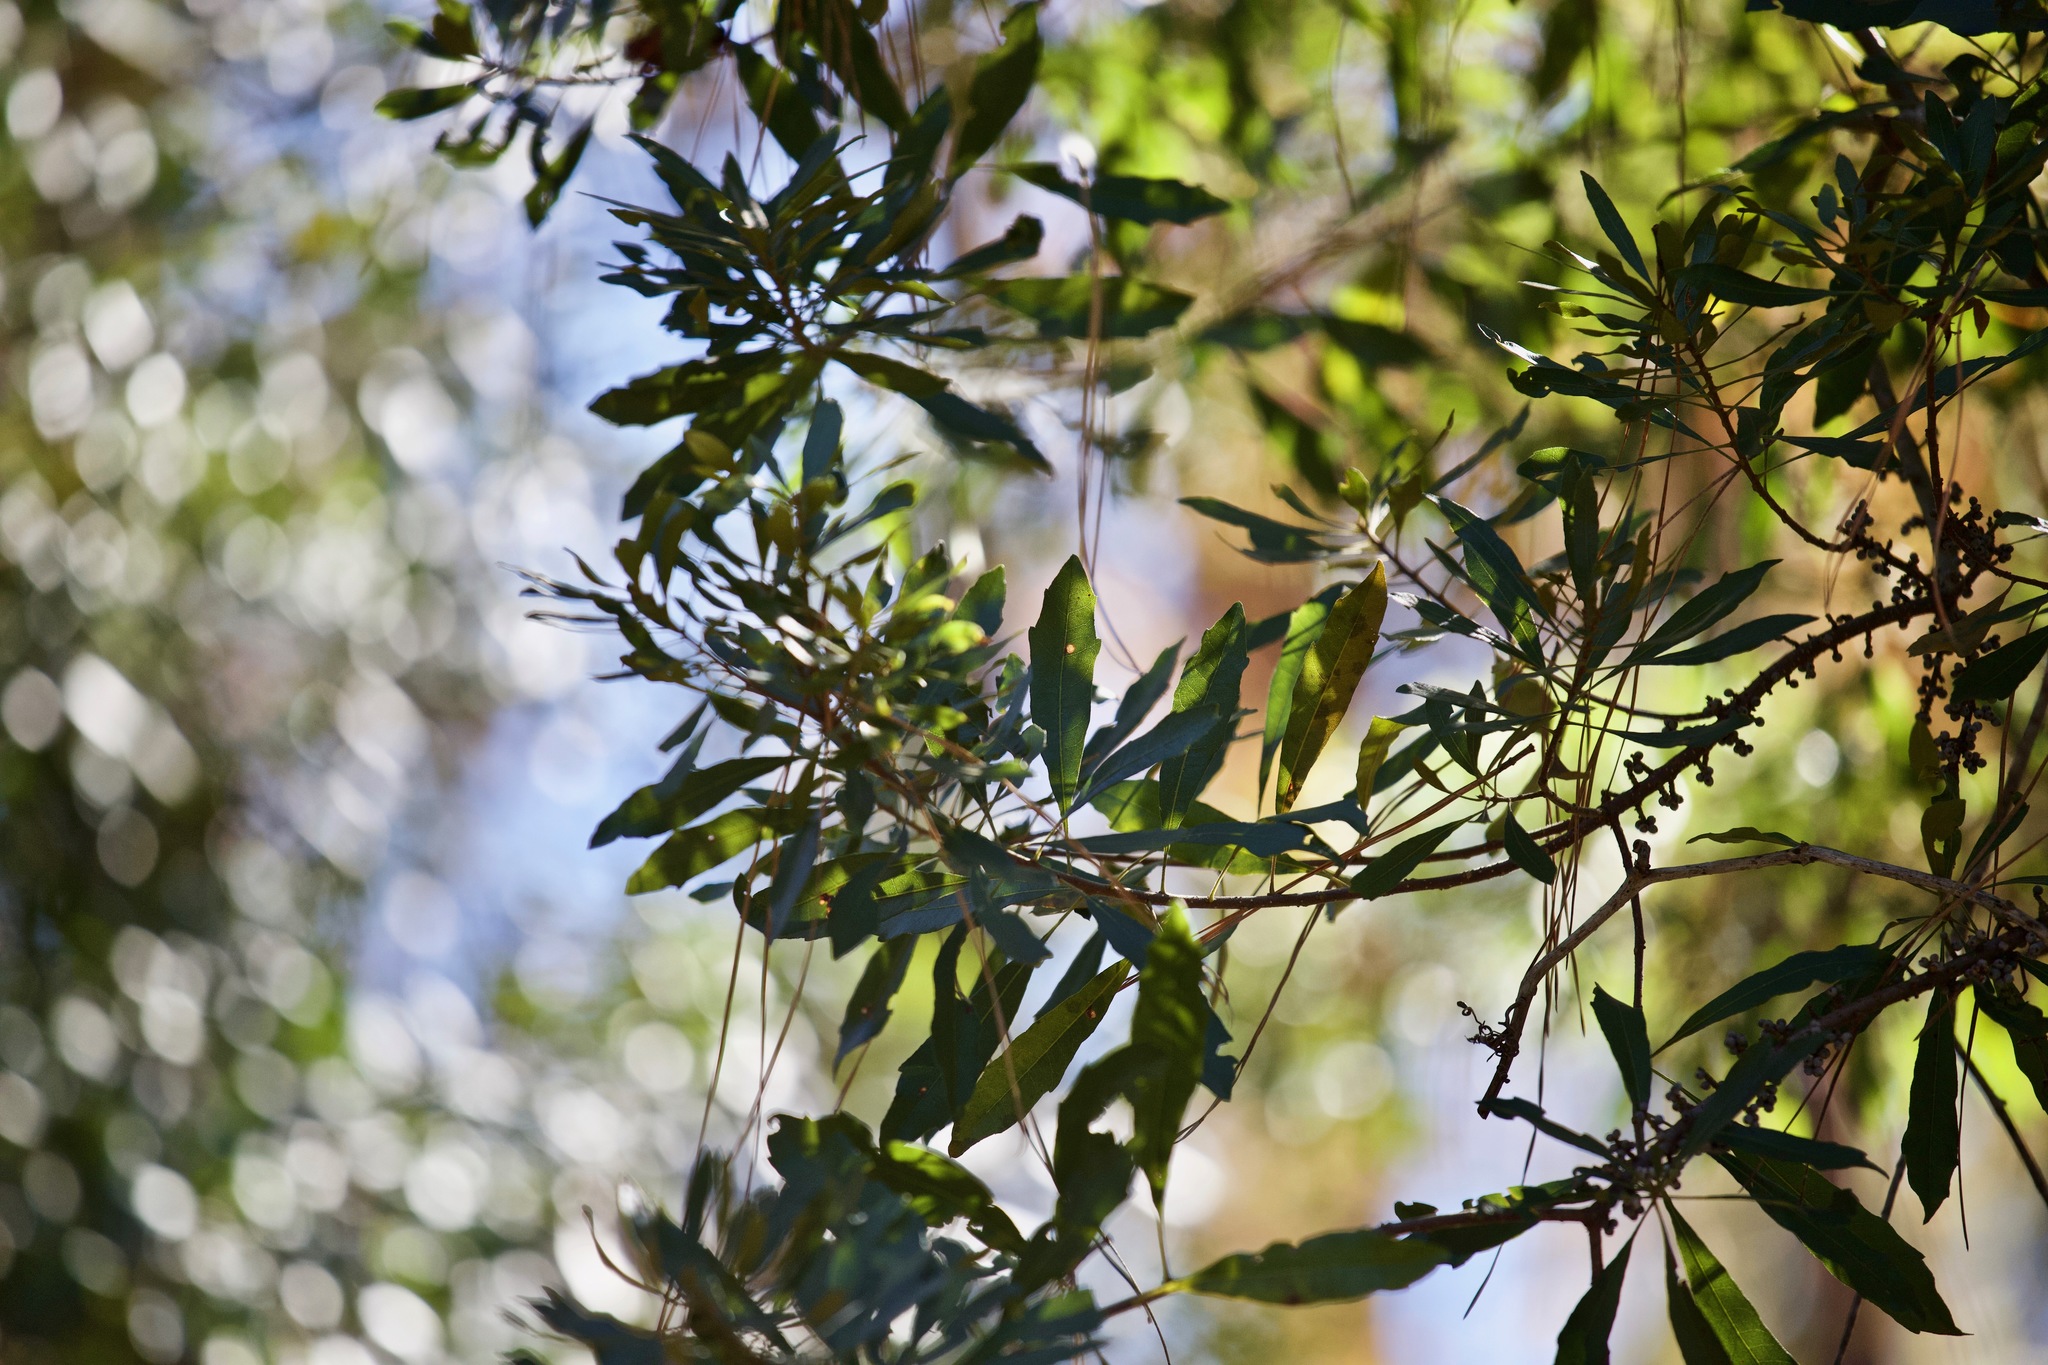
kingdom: Plantae
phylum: Tracheophyta
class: Magnoliopsida
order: Fagales
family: Myricaceae
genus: Morella
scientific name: Morella cerifera
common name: Wax myrtle
